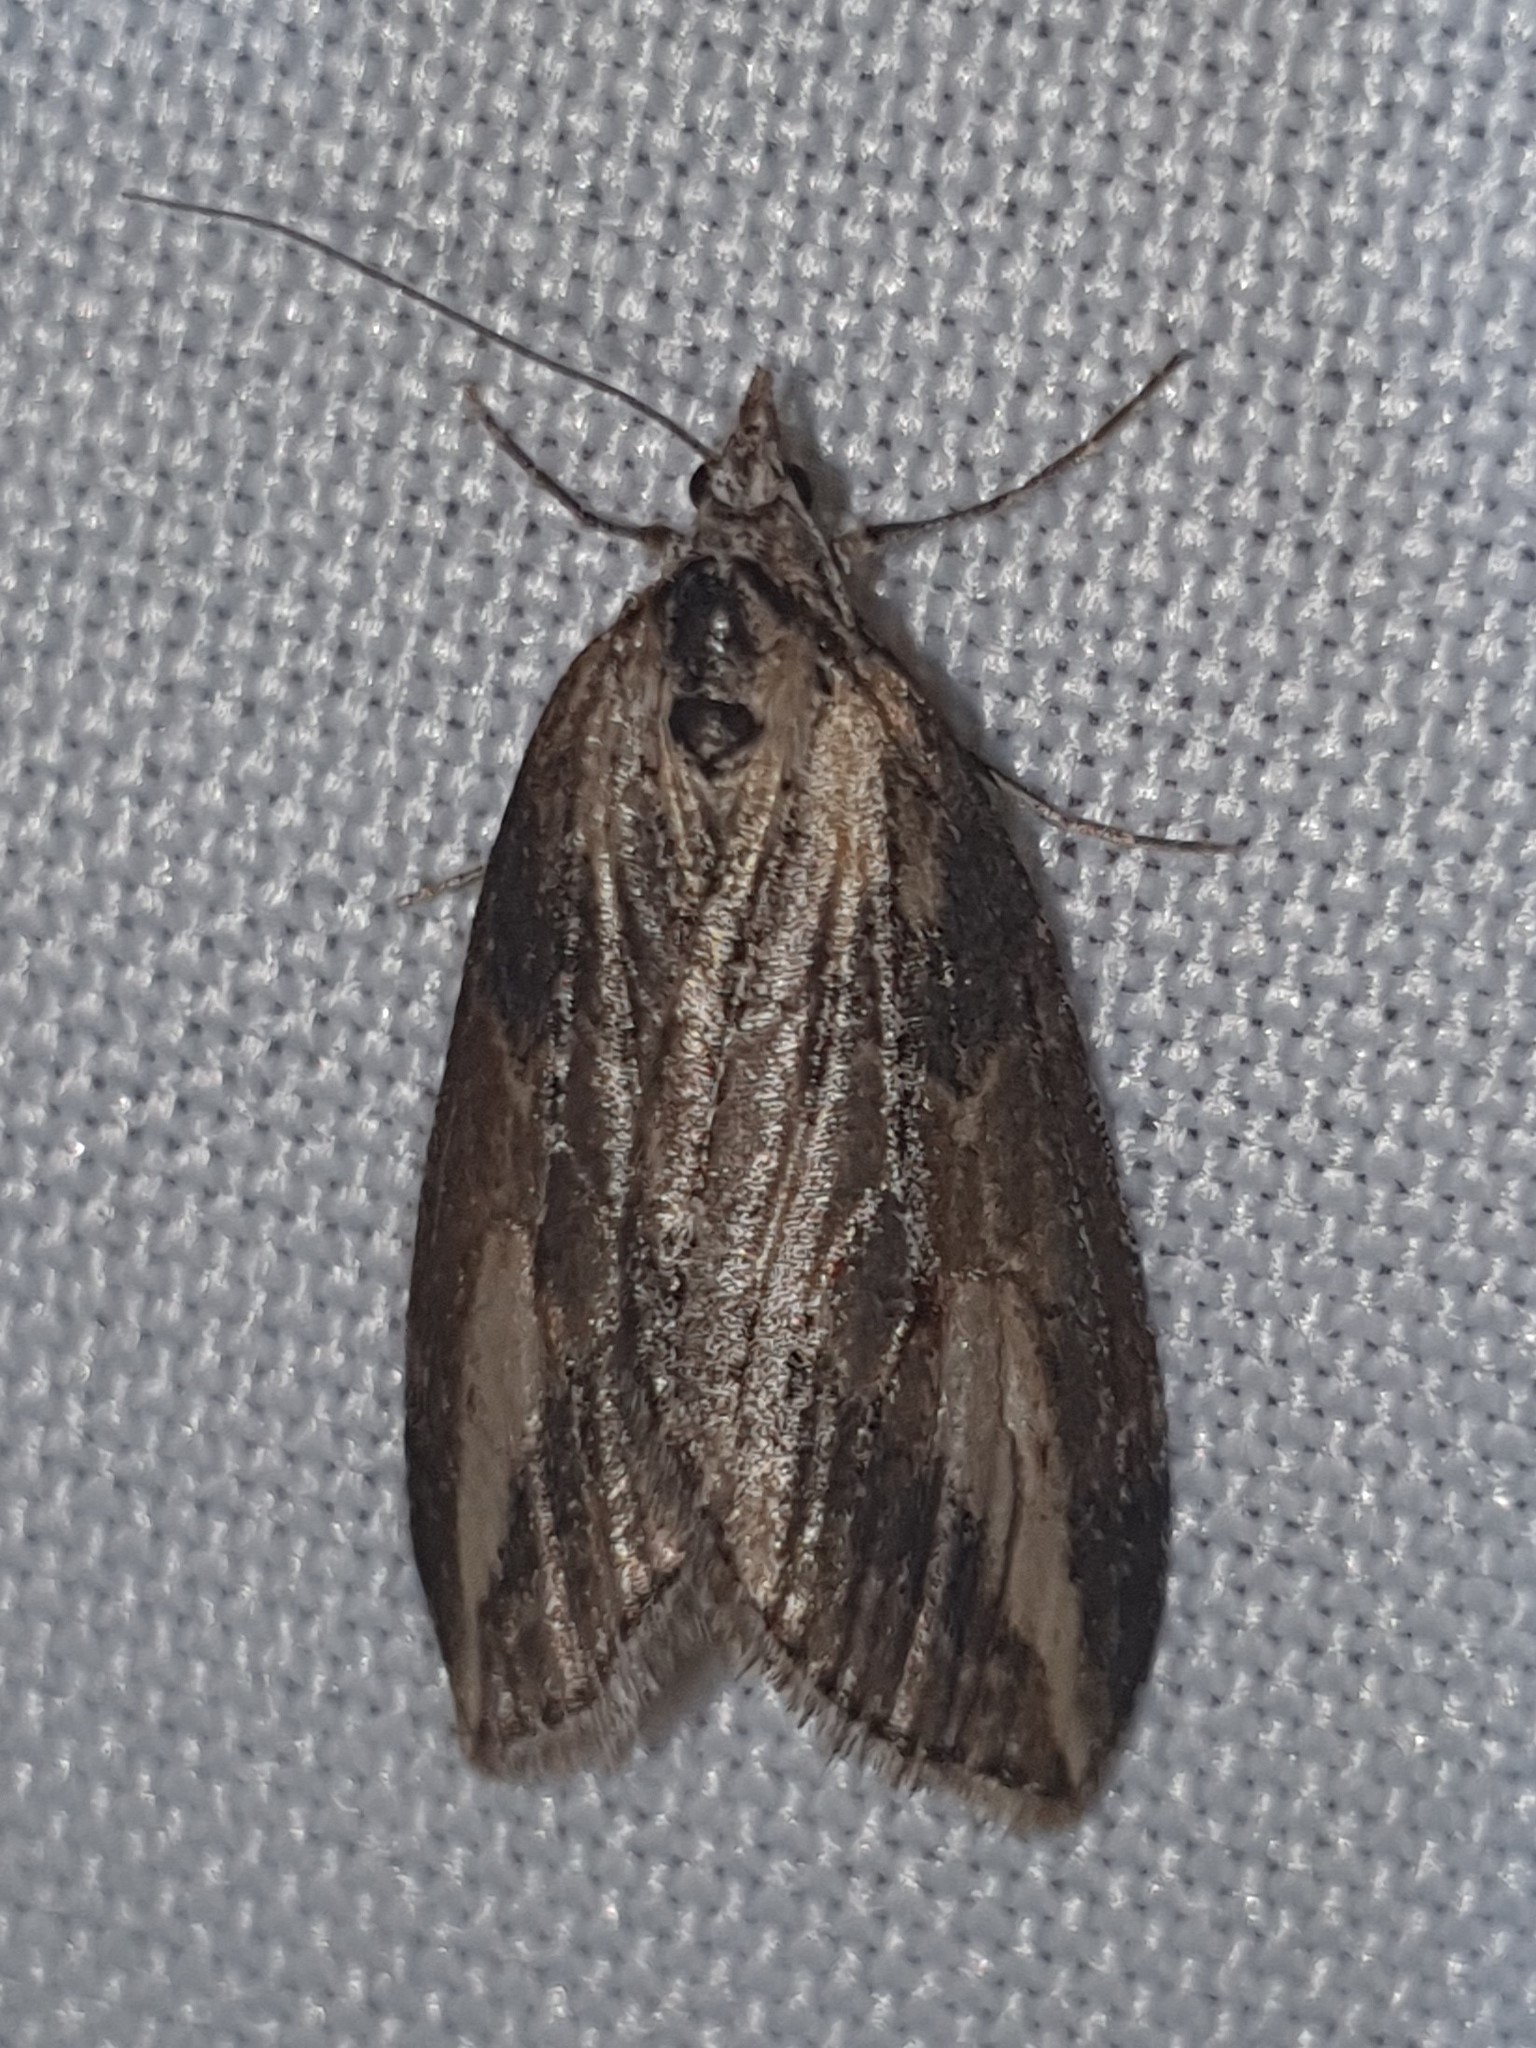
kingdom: Animalia
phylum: Arthropoda
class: Insecta
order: Lepidoptera
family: Geometridae
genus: Chesias
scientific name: Chesias isabella
